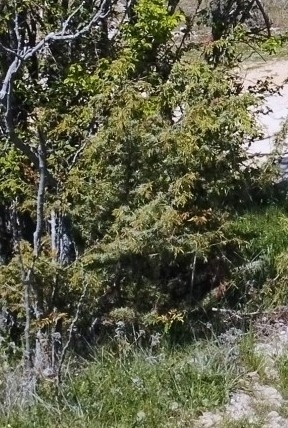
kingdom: Plantae
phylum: Tracheophyta
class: Pinopsida
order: Pinales
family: Cupressaceae
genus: Juniperus
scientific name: Juniperus oxycedrus
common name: Prickly juniper
